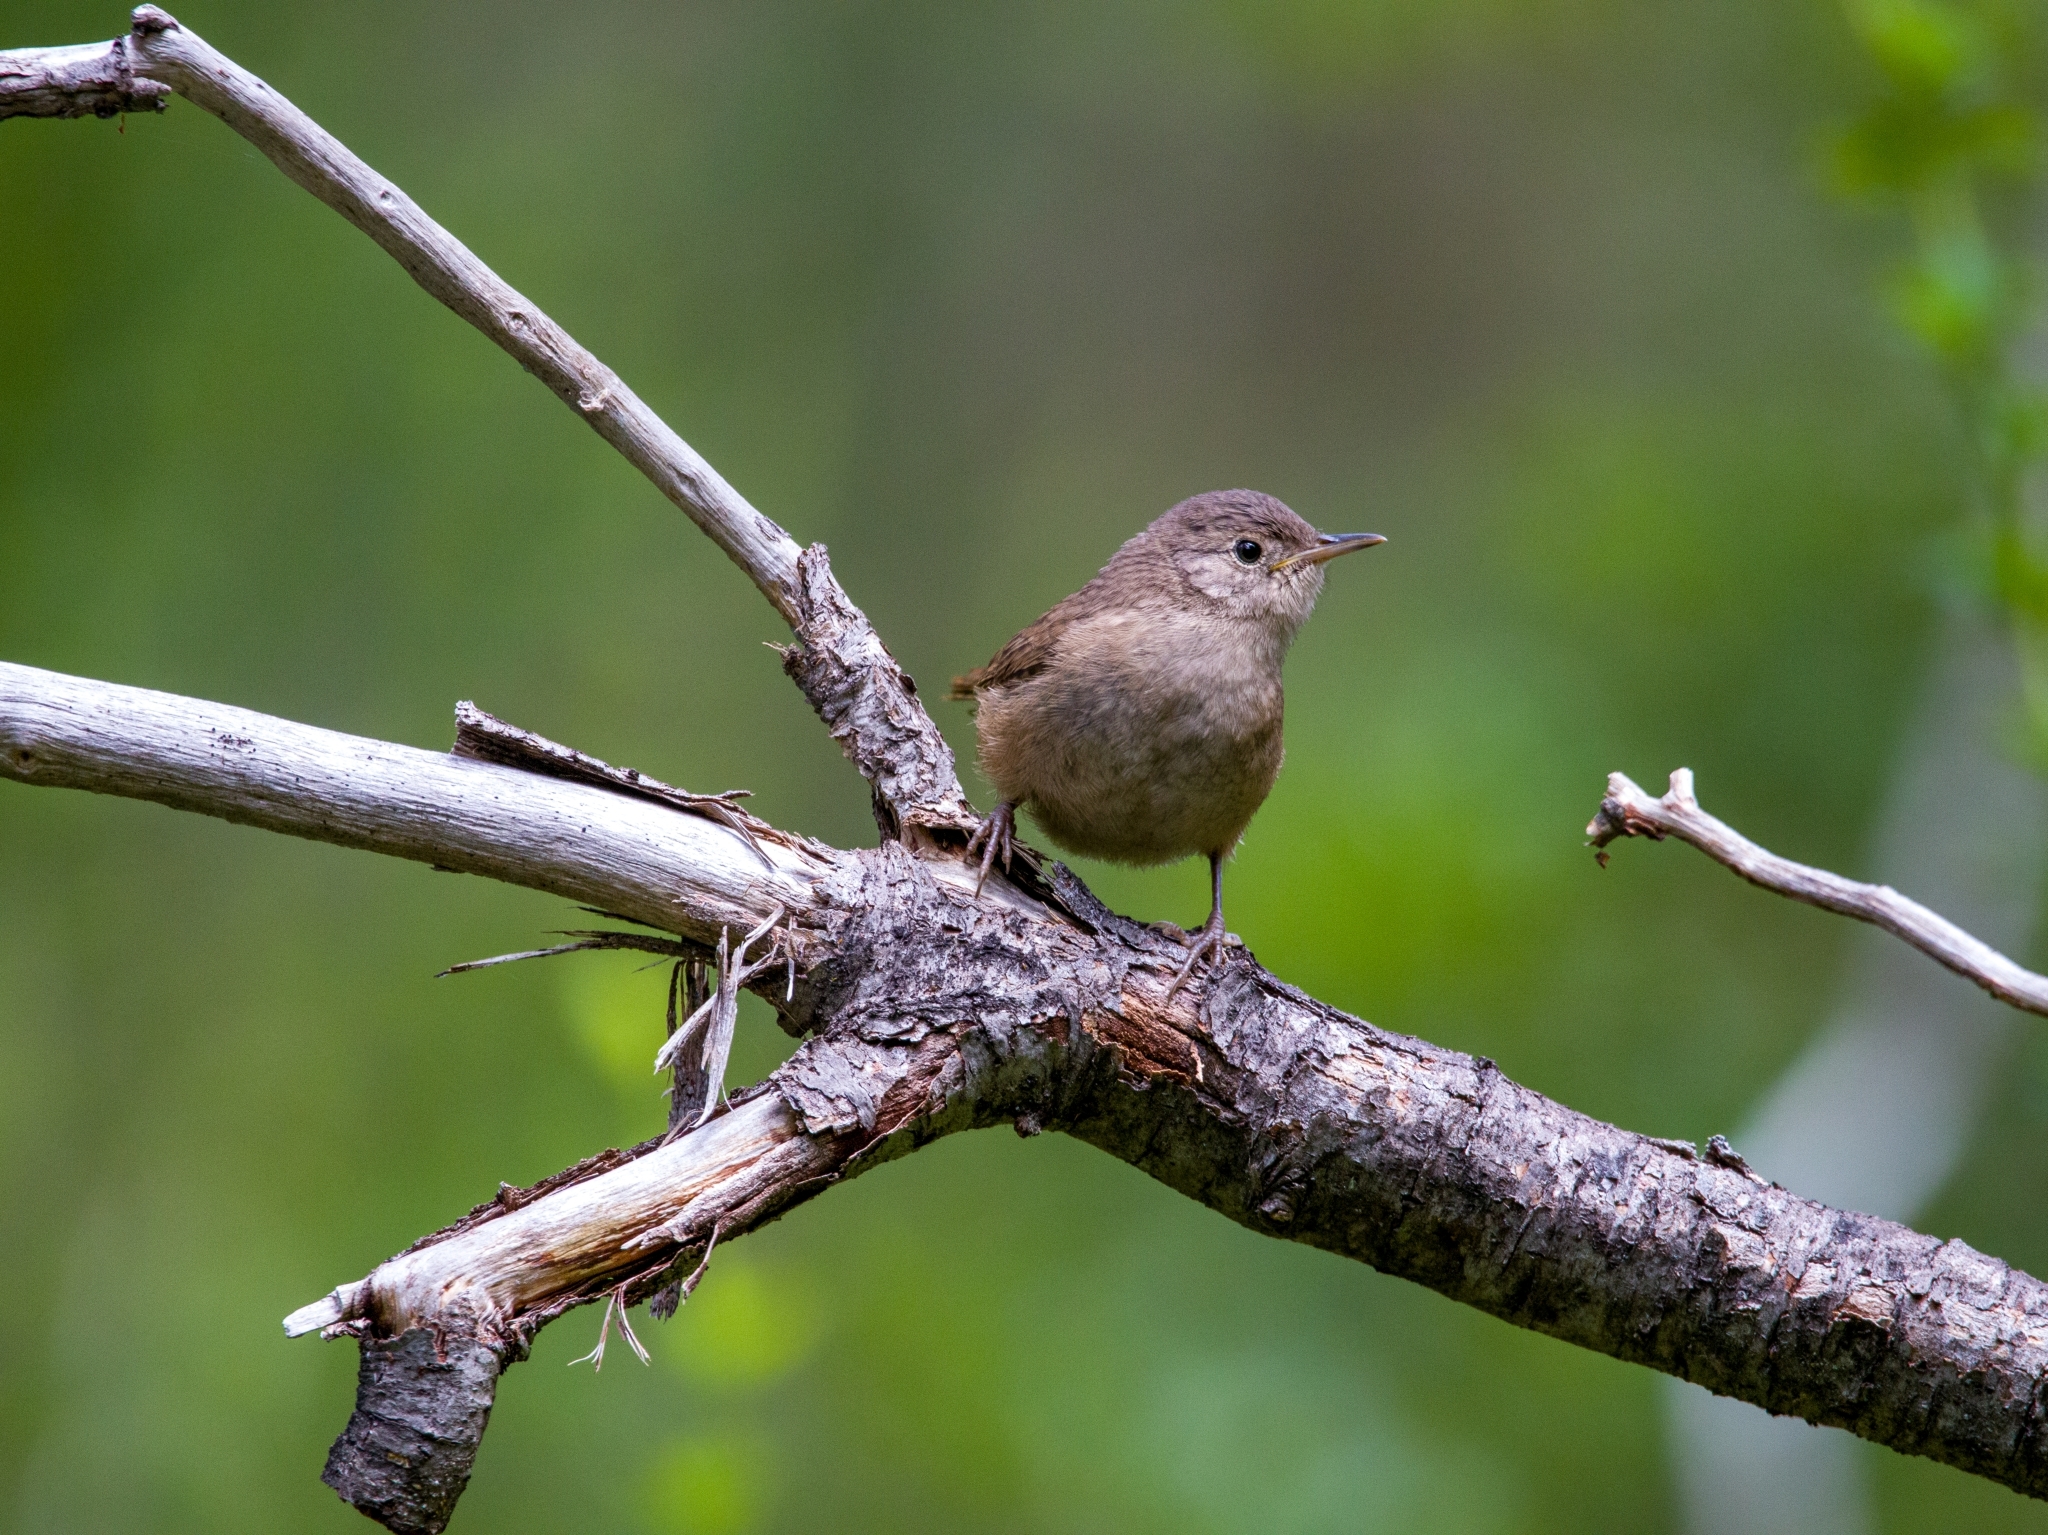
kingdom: Animalia
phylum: Chordata
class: Aves
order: Passeriformes
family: Troglodytidae
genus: Troglodytes
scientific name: Troglodytes aedon
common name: House wren
